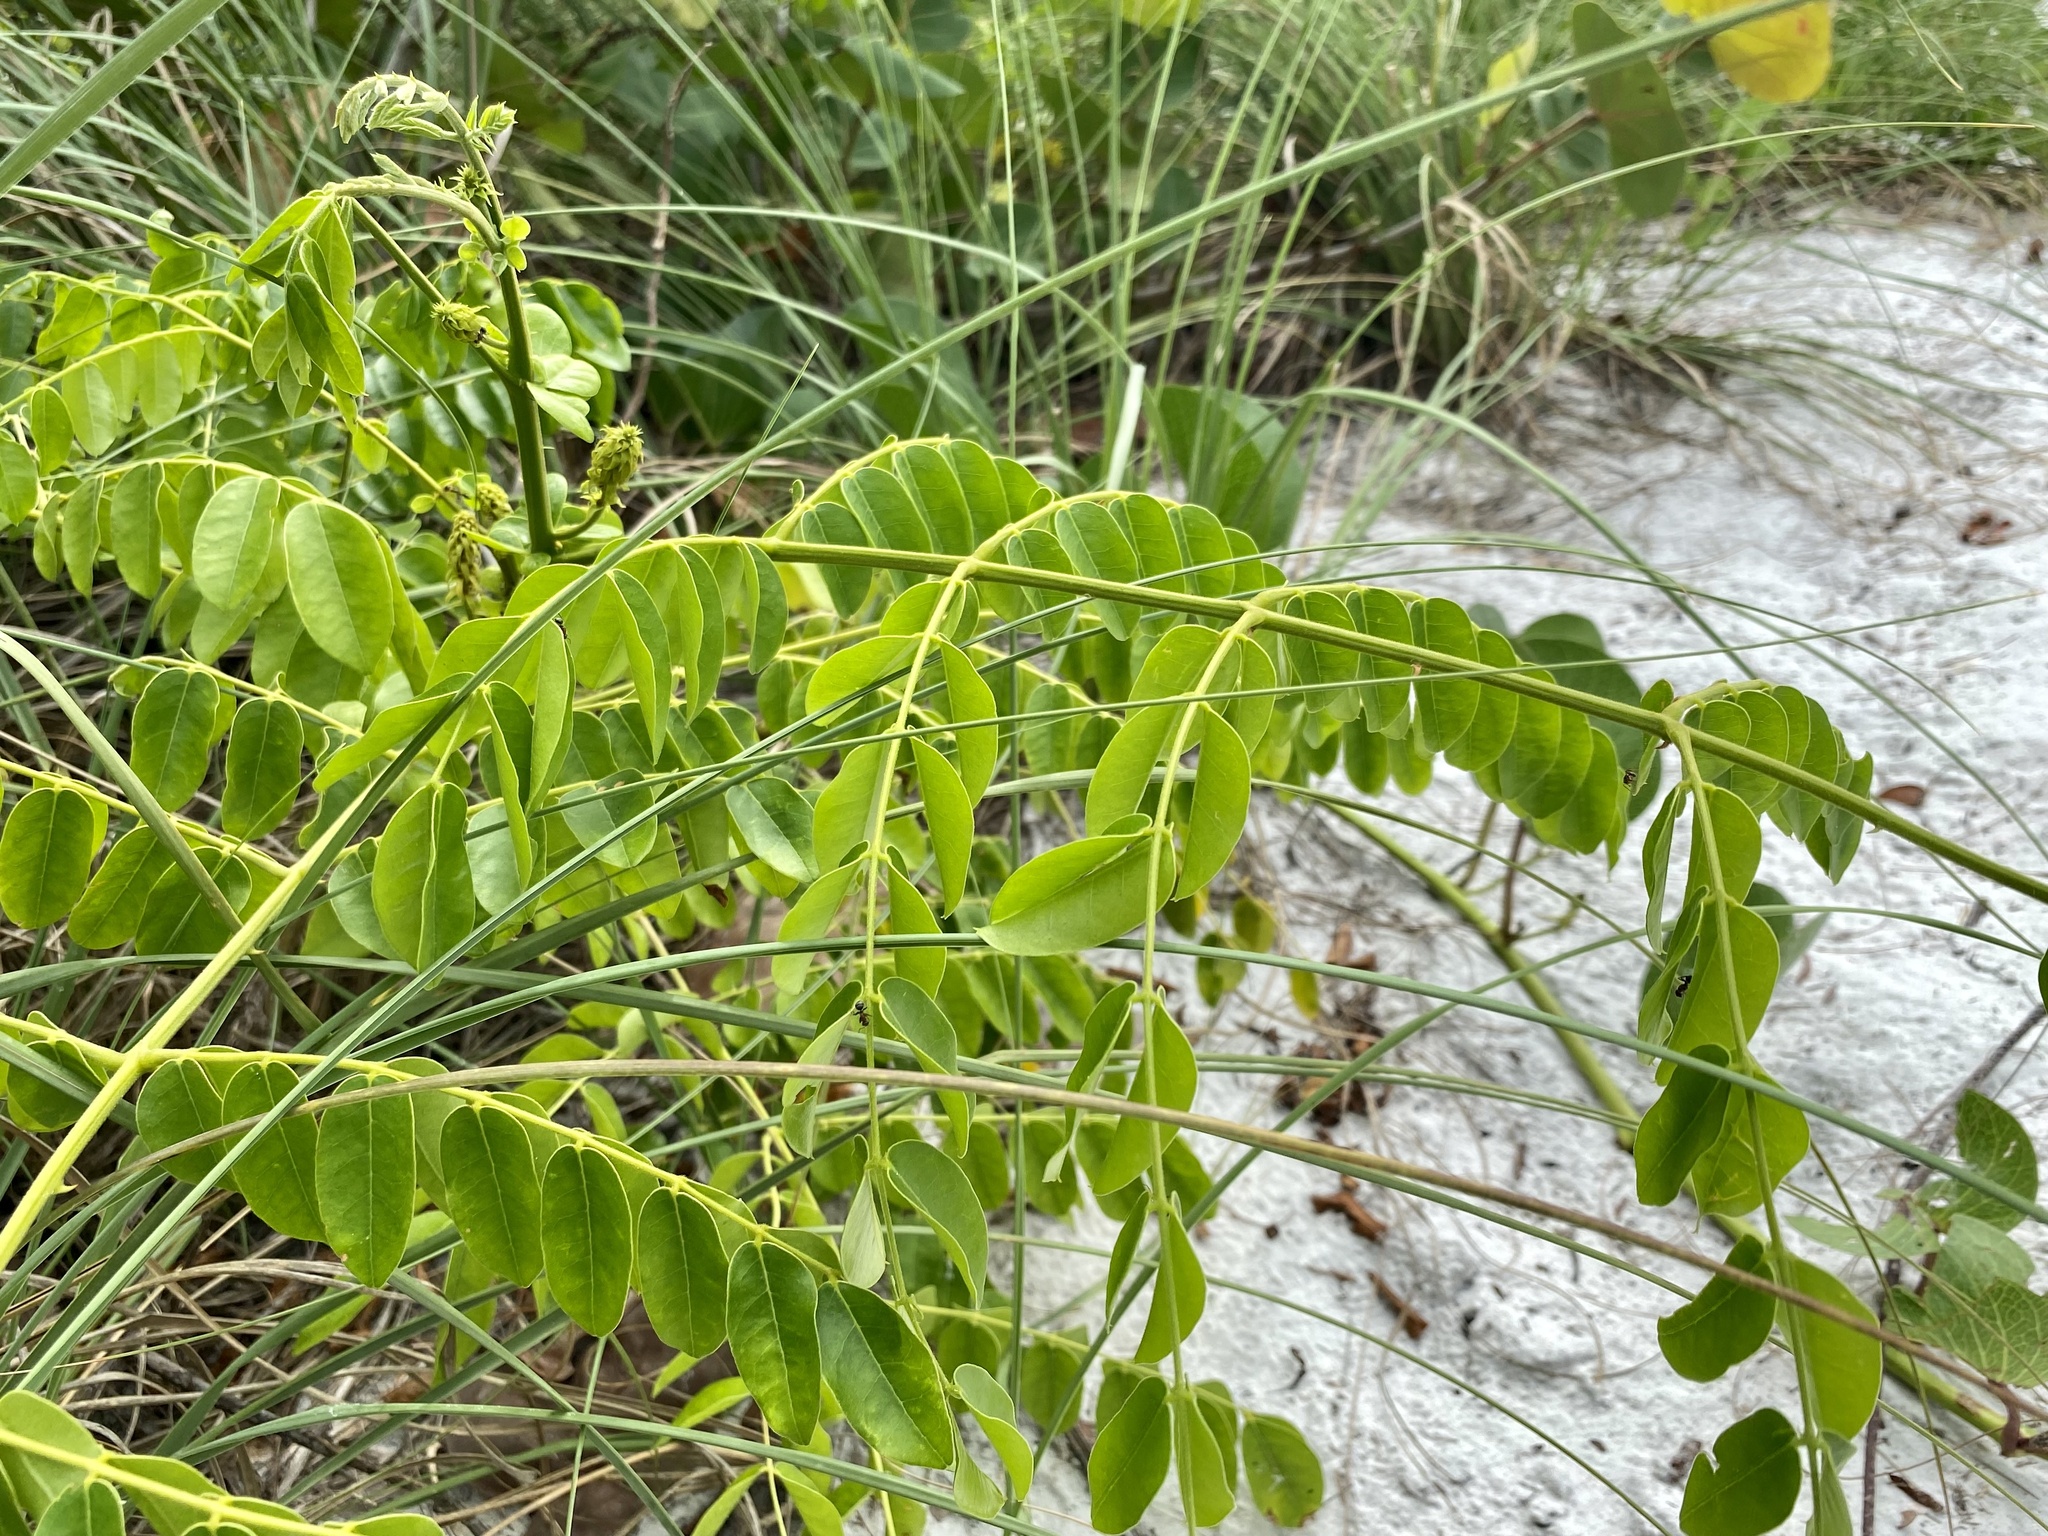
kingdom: Plantae
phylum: Tracheophyta
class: Magnoliopsida
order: Fabales
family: Fabaceae
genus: Guilandina
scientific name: Guilandina bonduc
